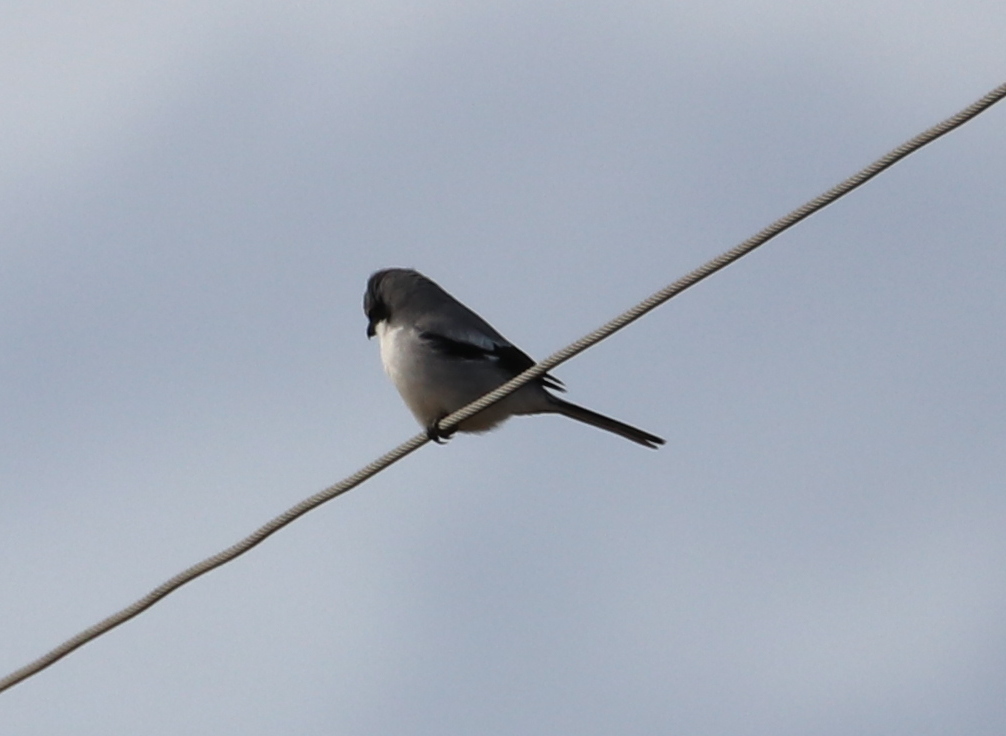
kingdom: Animalia
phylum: Chordata
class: Aves
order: Passeriformes
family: Laniidae
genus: Lanius
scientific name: Lanius ludovicianus
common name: Loggerhead shrike
